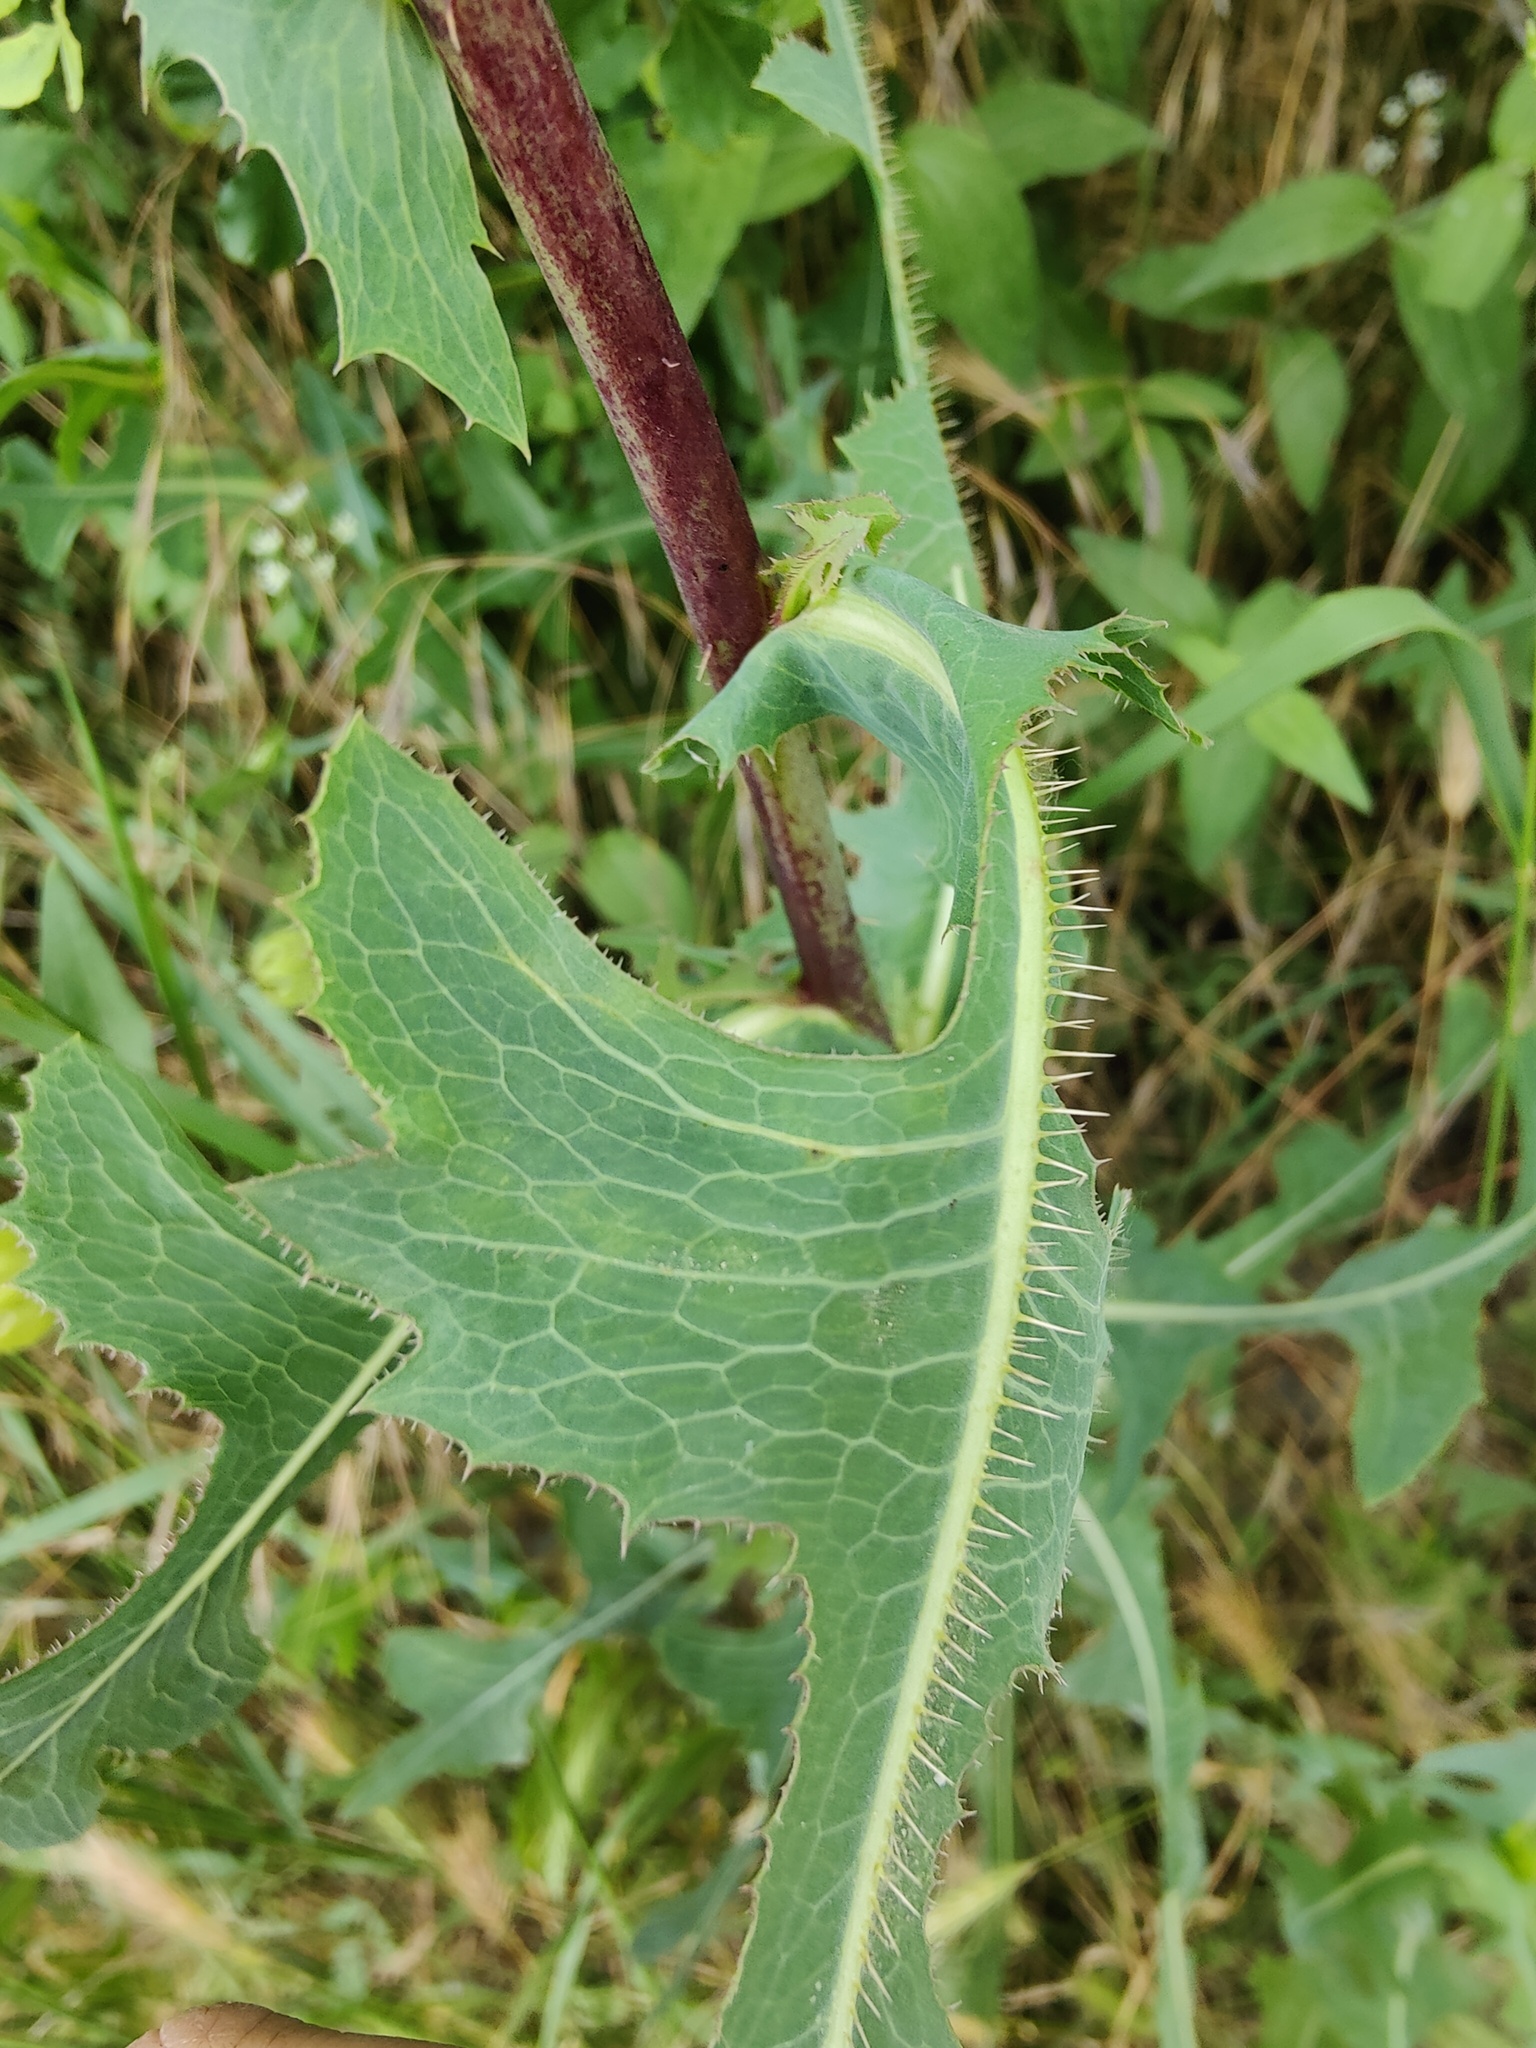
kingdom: Plantae
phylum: Tracheophyta
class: Magnoliopsida
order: Asterales
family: Asteraceae
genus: Lactuca
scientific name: Lactuca serriola
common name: Prickly lettuce
